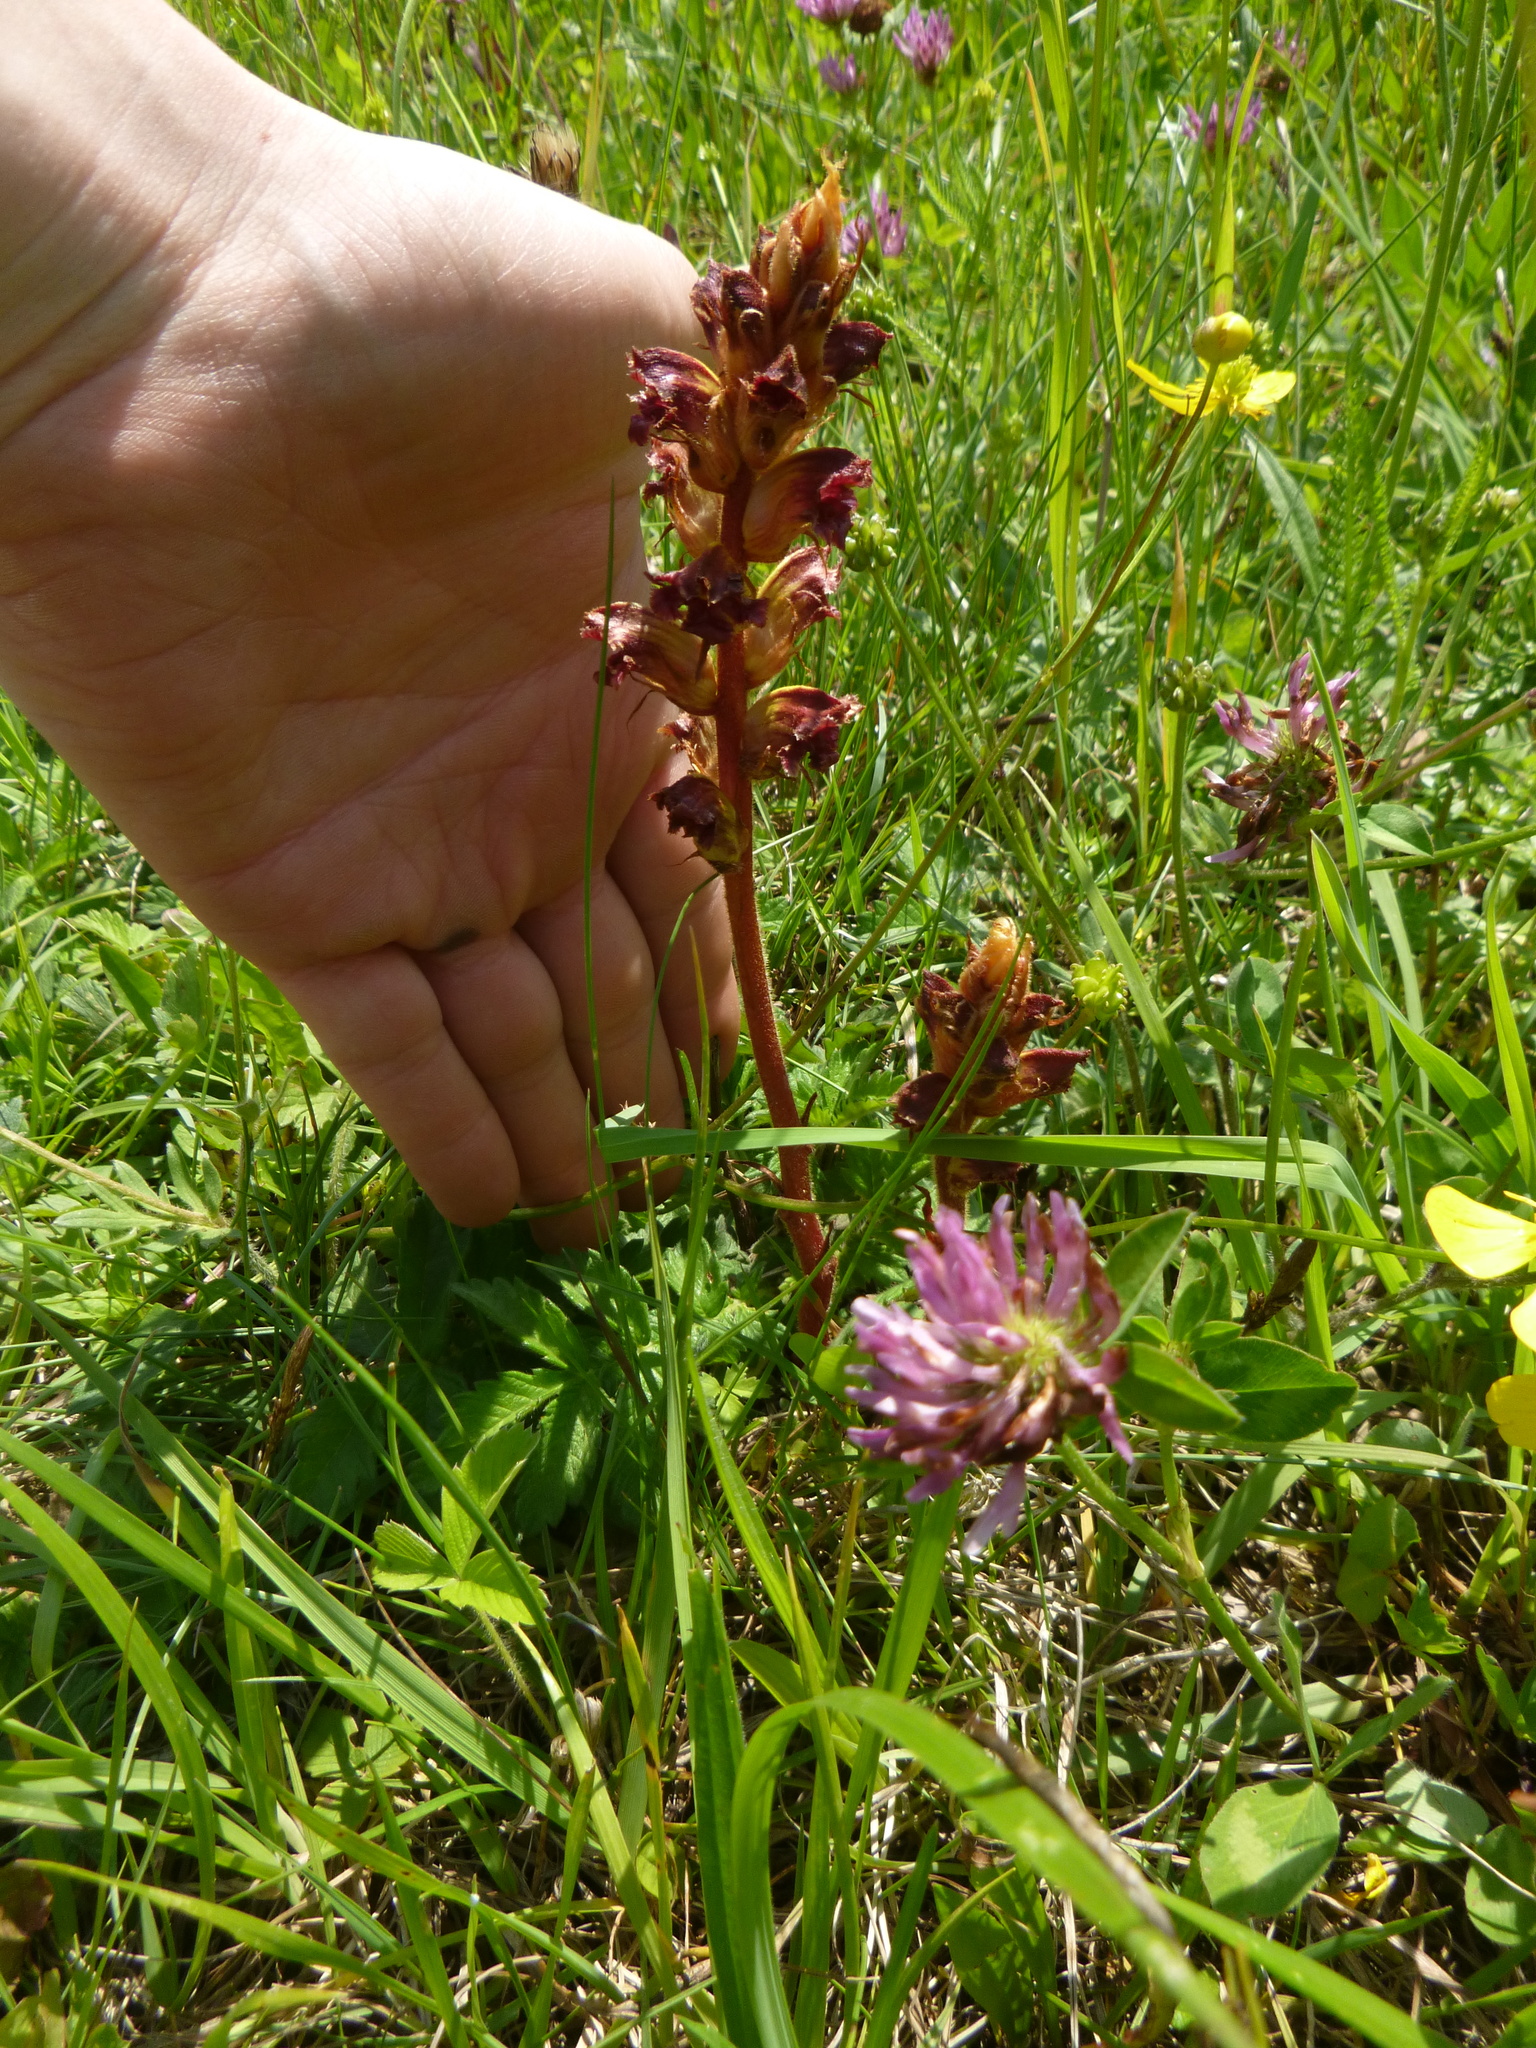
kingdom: Plantae
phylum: Tracheophyta
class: Magnoliopsida
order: Lamiales
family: Orobanchaceae
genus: Orobanche
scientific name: Orobanche gracilis
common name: Slender broomrape
